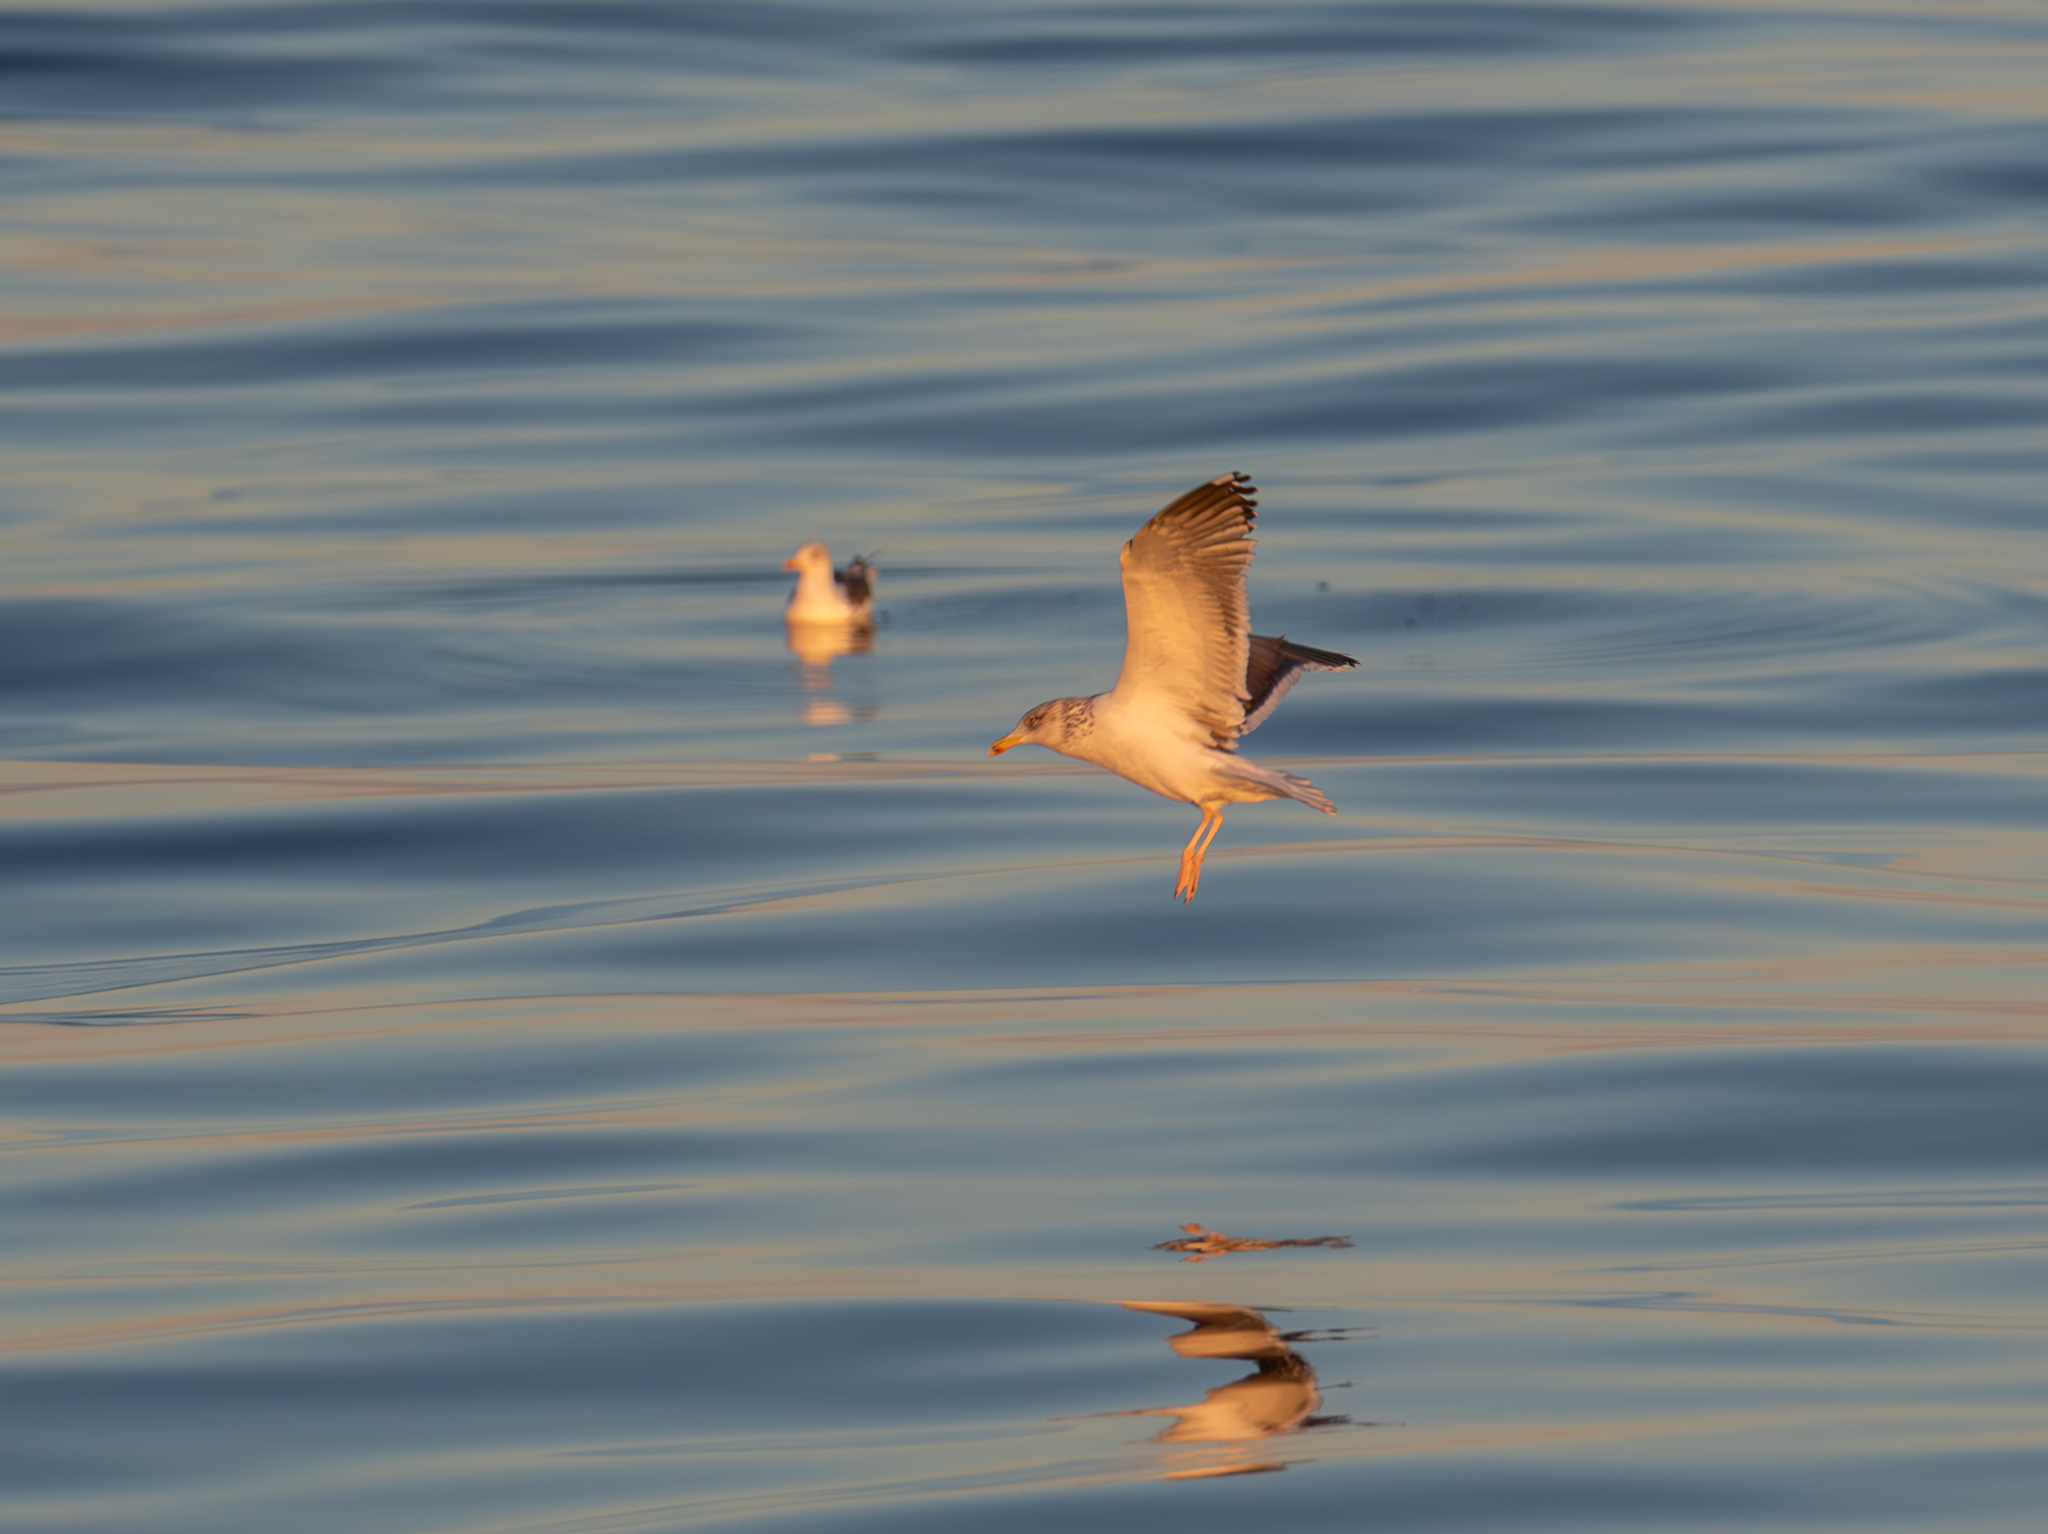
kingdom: Animalia
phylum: Chordata
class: Aves
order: Charadriiformes
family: Laridae
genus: Larus
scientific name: Larus fuscus
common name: Lesser black-backed gull
